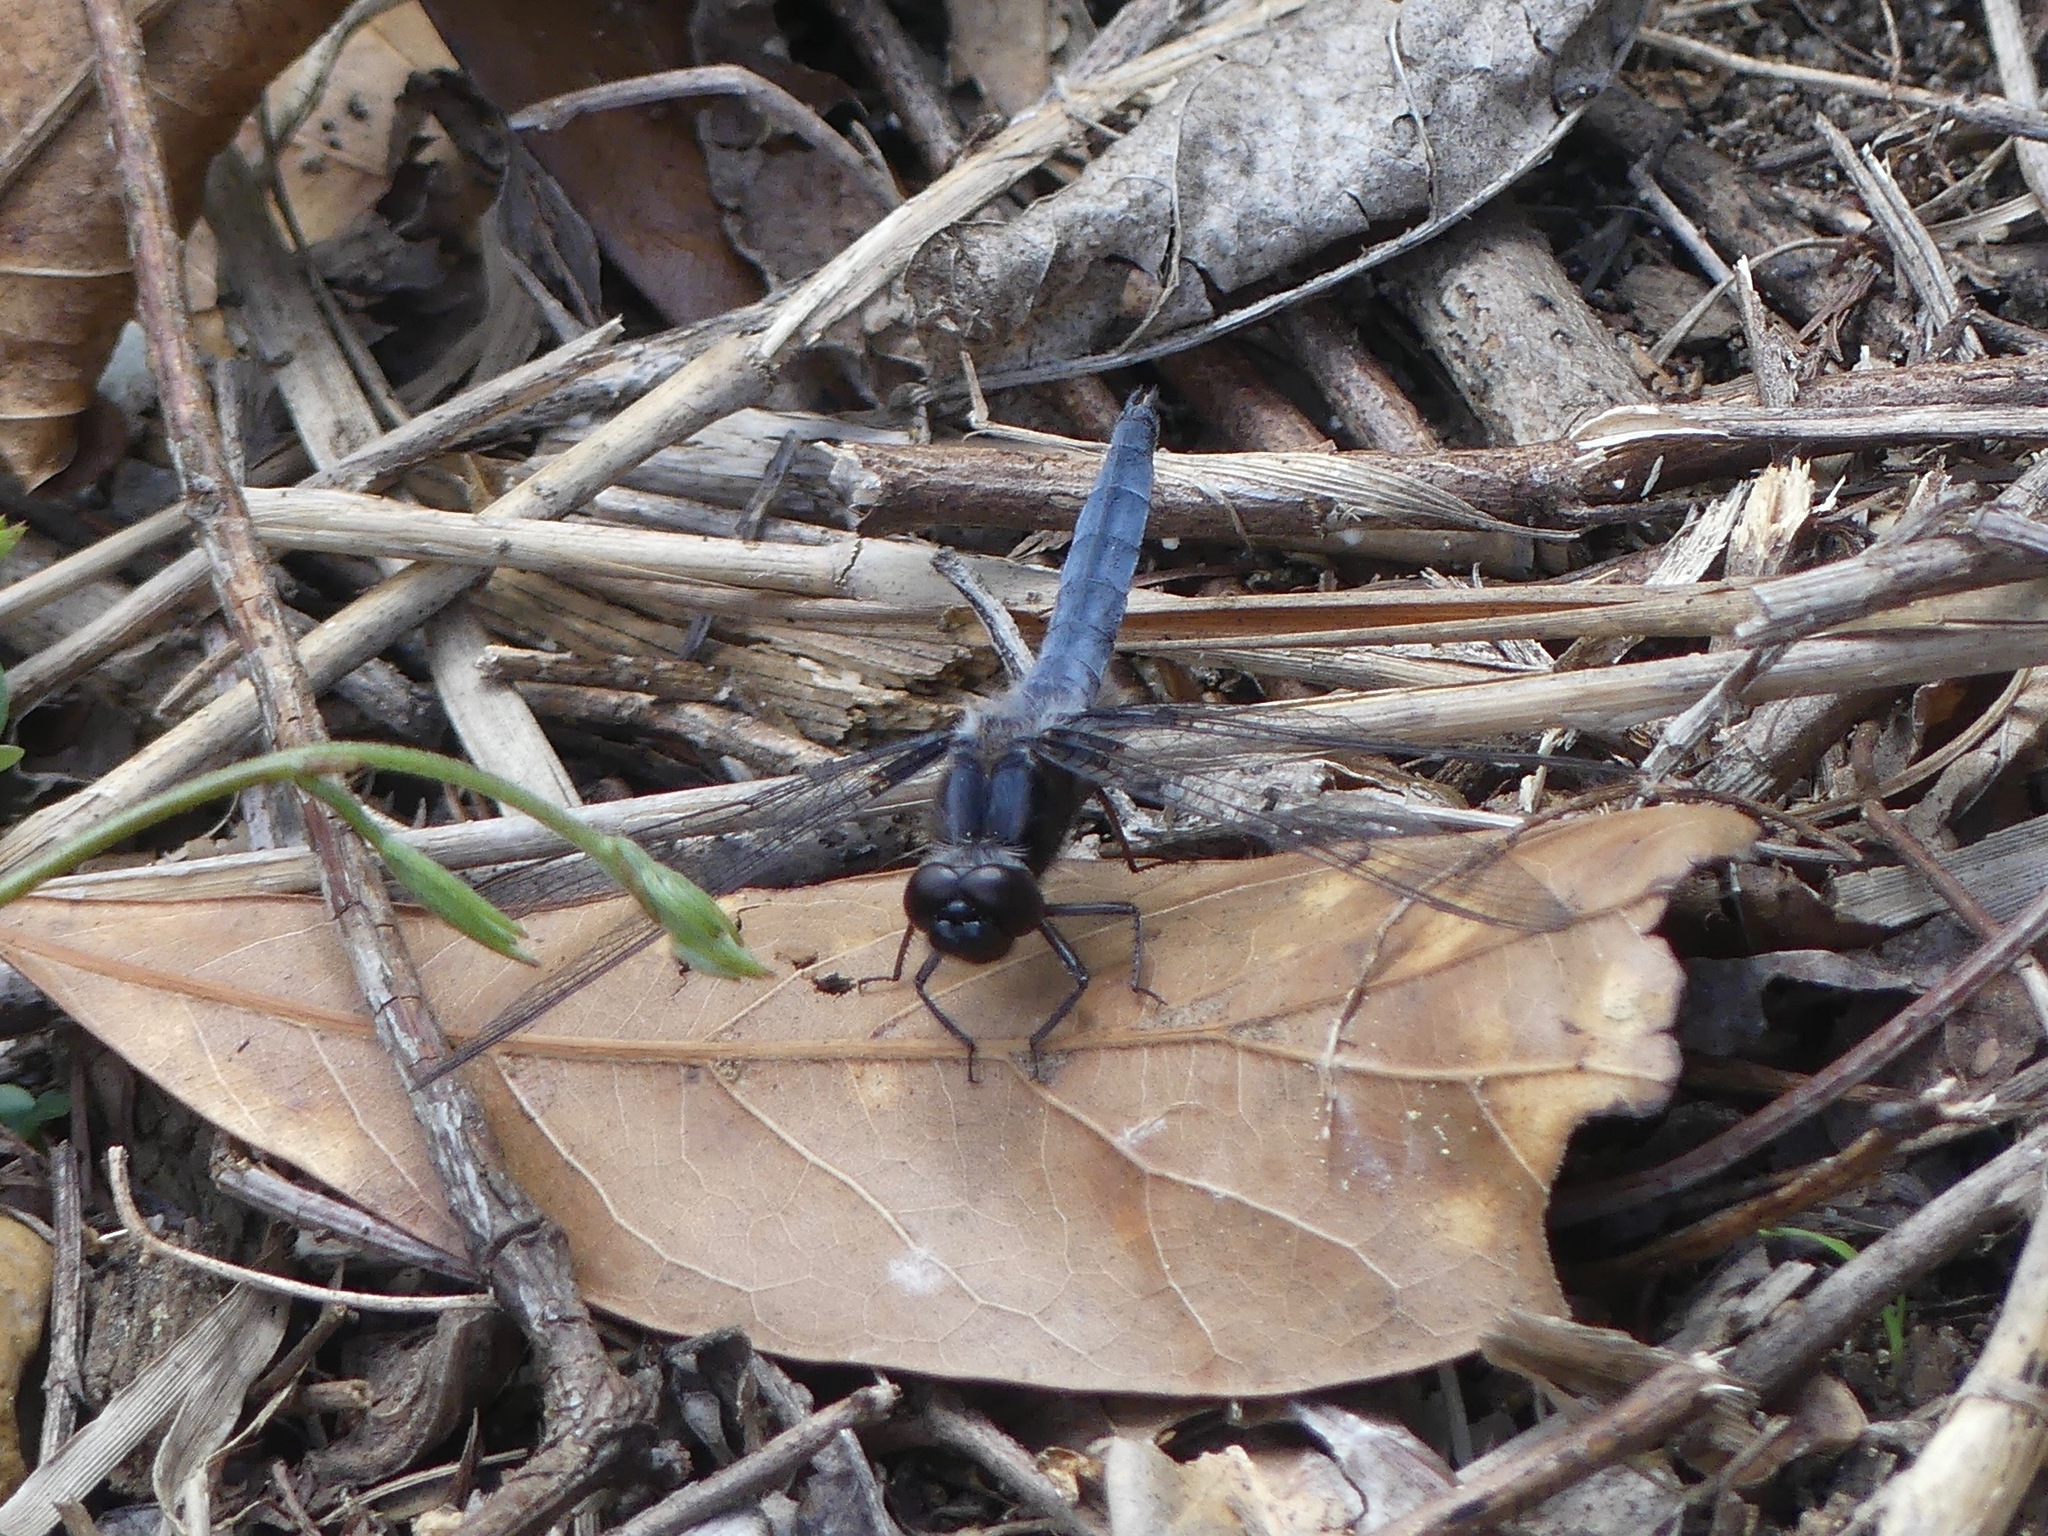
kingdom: Animalia
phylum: Arthropoda
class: Insecta
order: Odonata
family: Libellulidae
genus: Ladona
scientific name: Ladona deplanata
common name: Blue corporal
